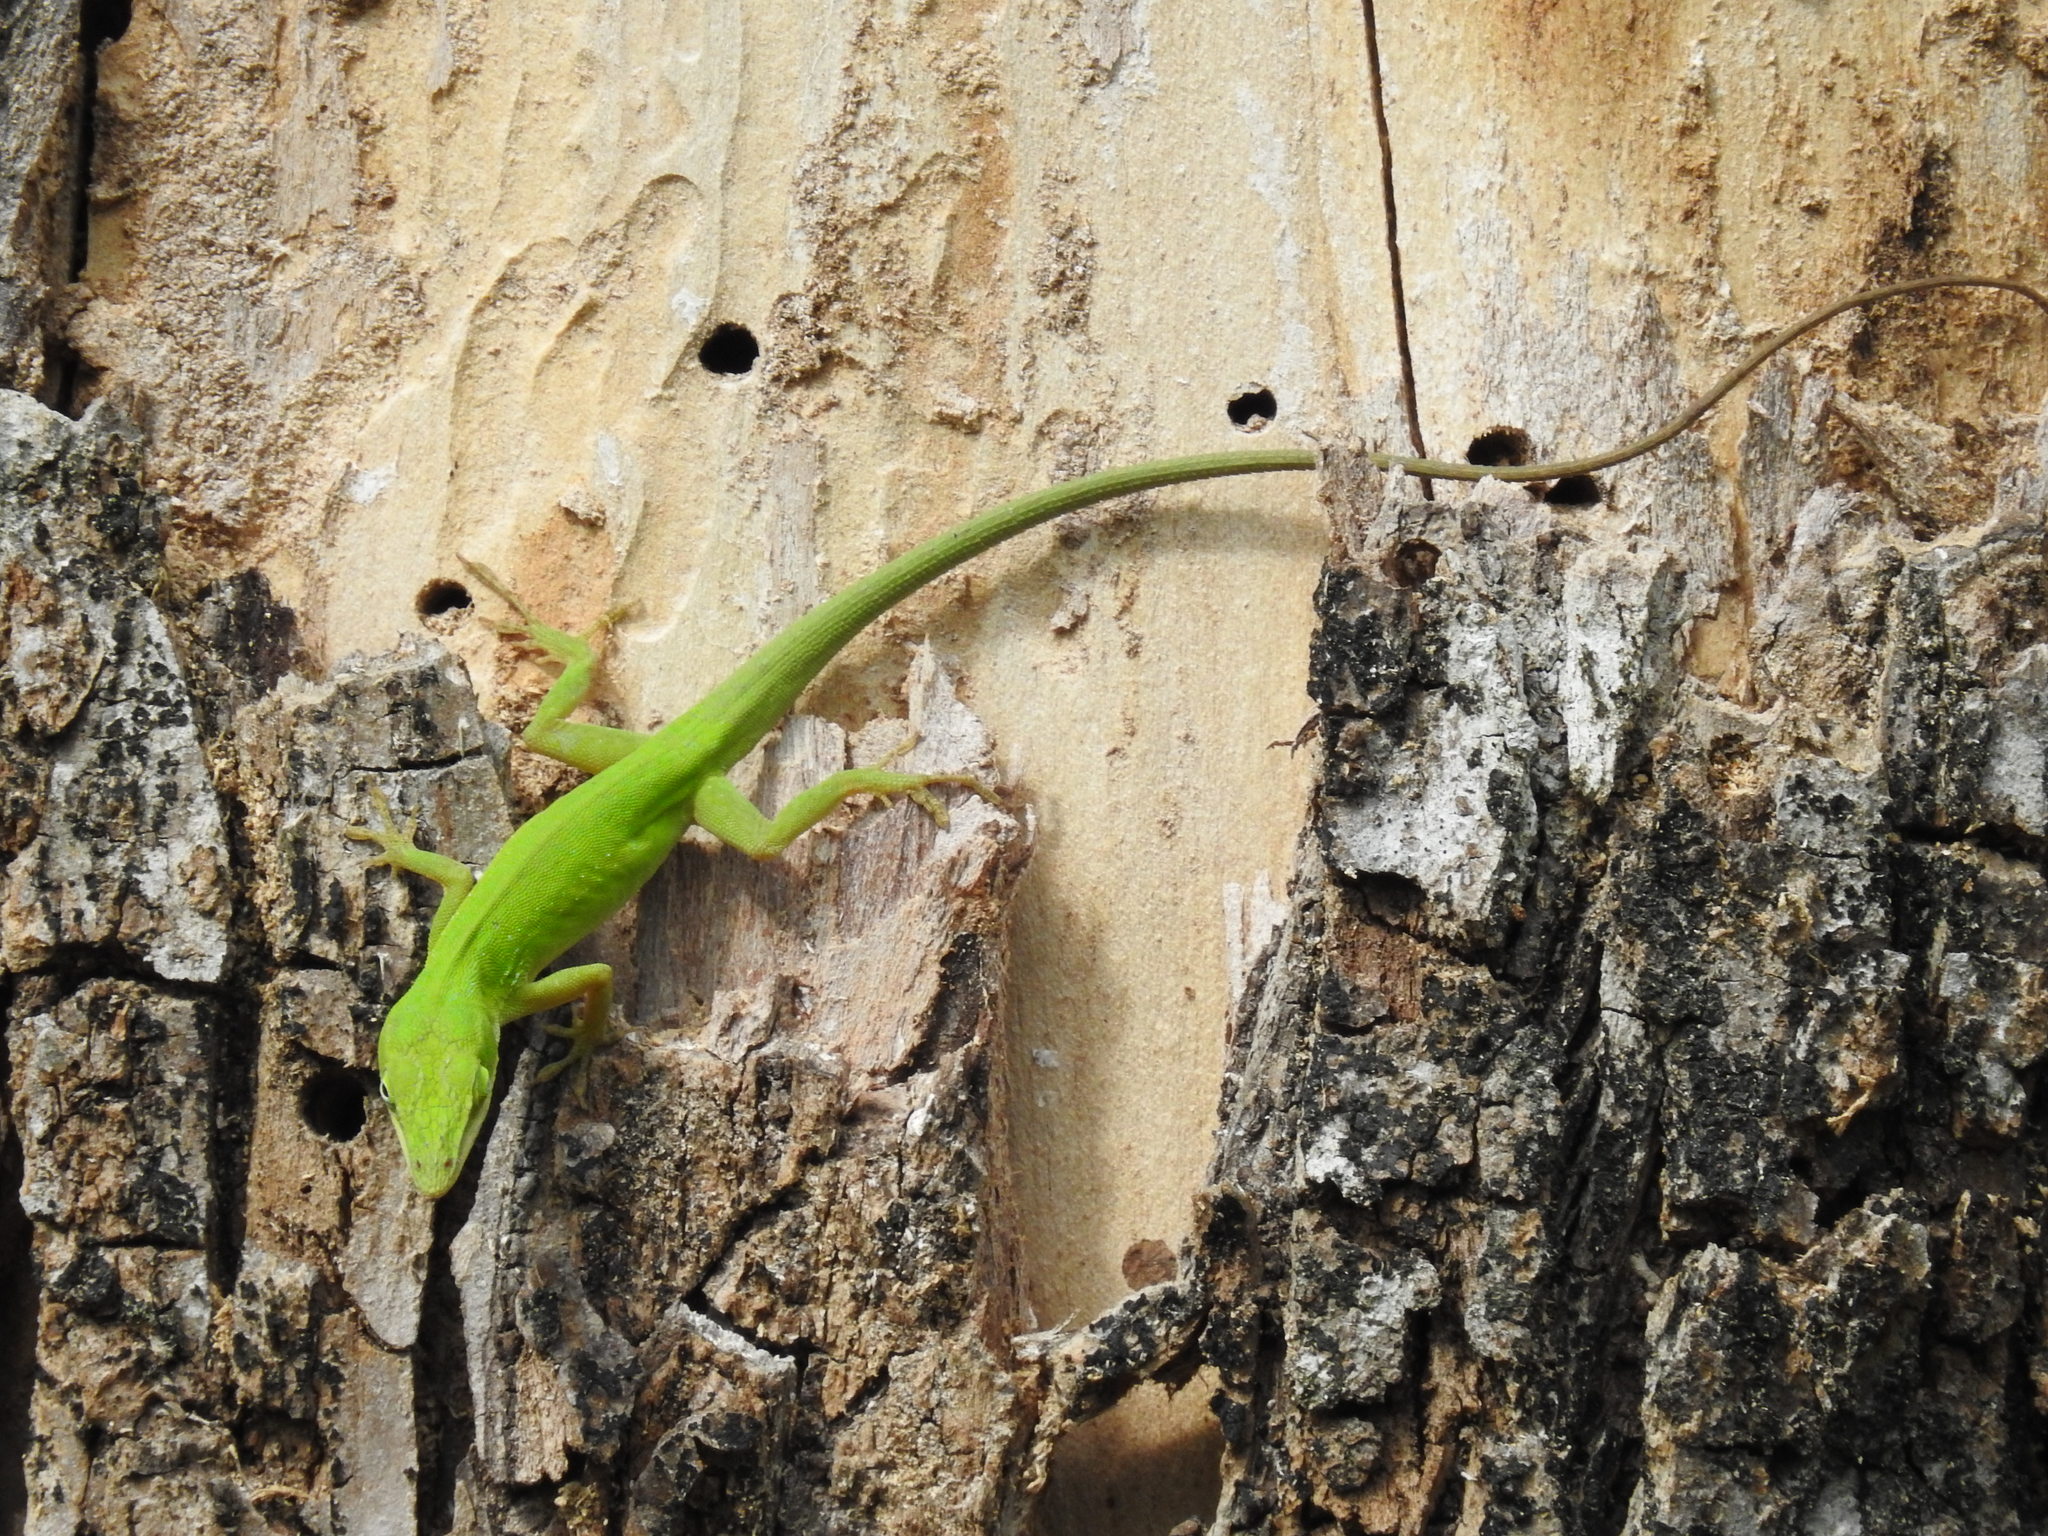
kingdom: Animalia
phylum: Chordata
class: Squamata
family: Dactyloidae
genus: Anolis
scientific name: Anolis carolinensis
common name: Green anole
